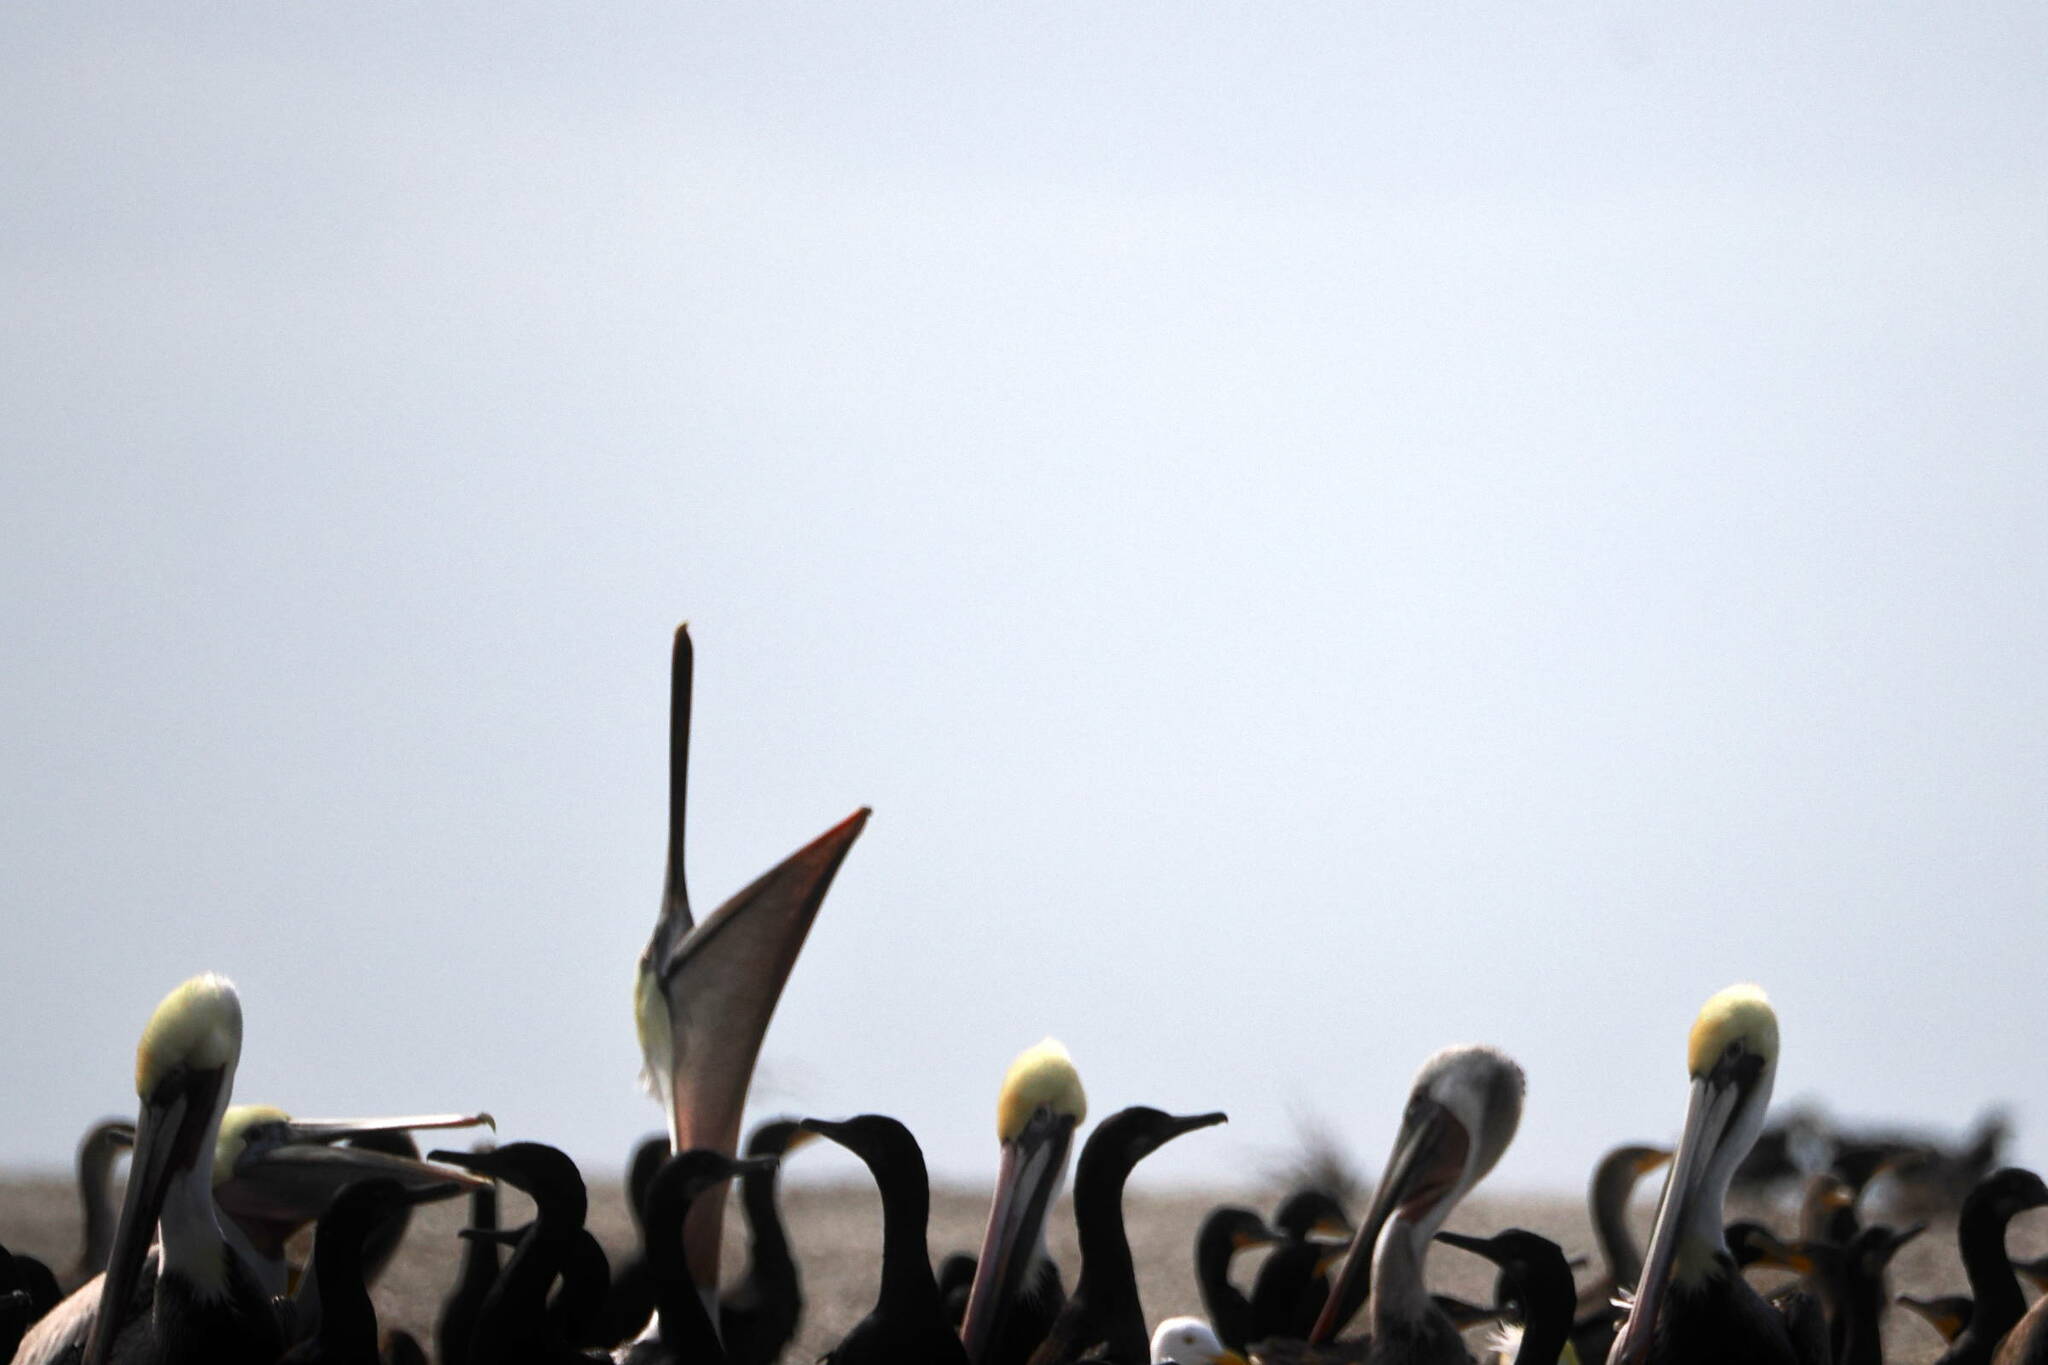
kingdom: Animalia
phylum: Chordata
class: Aves
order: Pelecaniformes
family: Pelecanidae
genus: Pelecanus
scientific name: Pelecanus occidentalis
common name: Brown pelican
